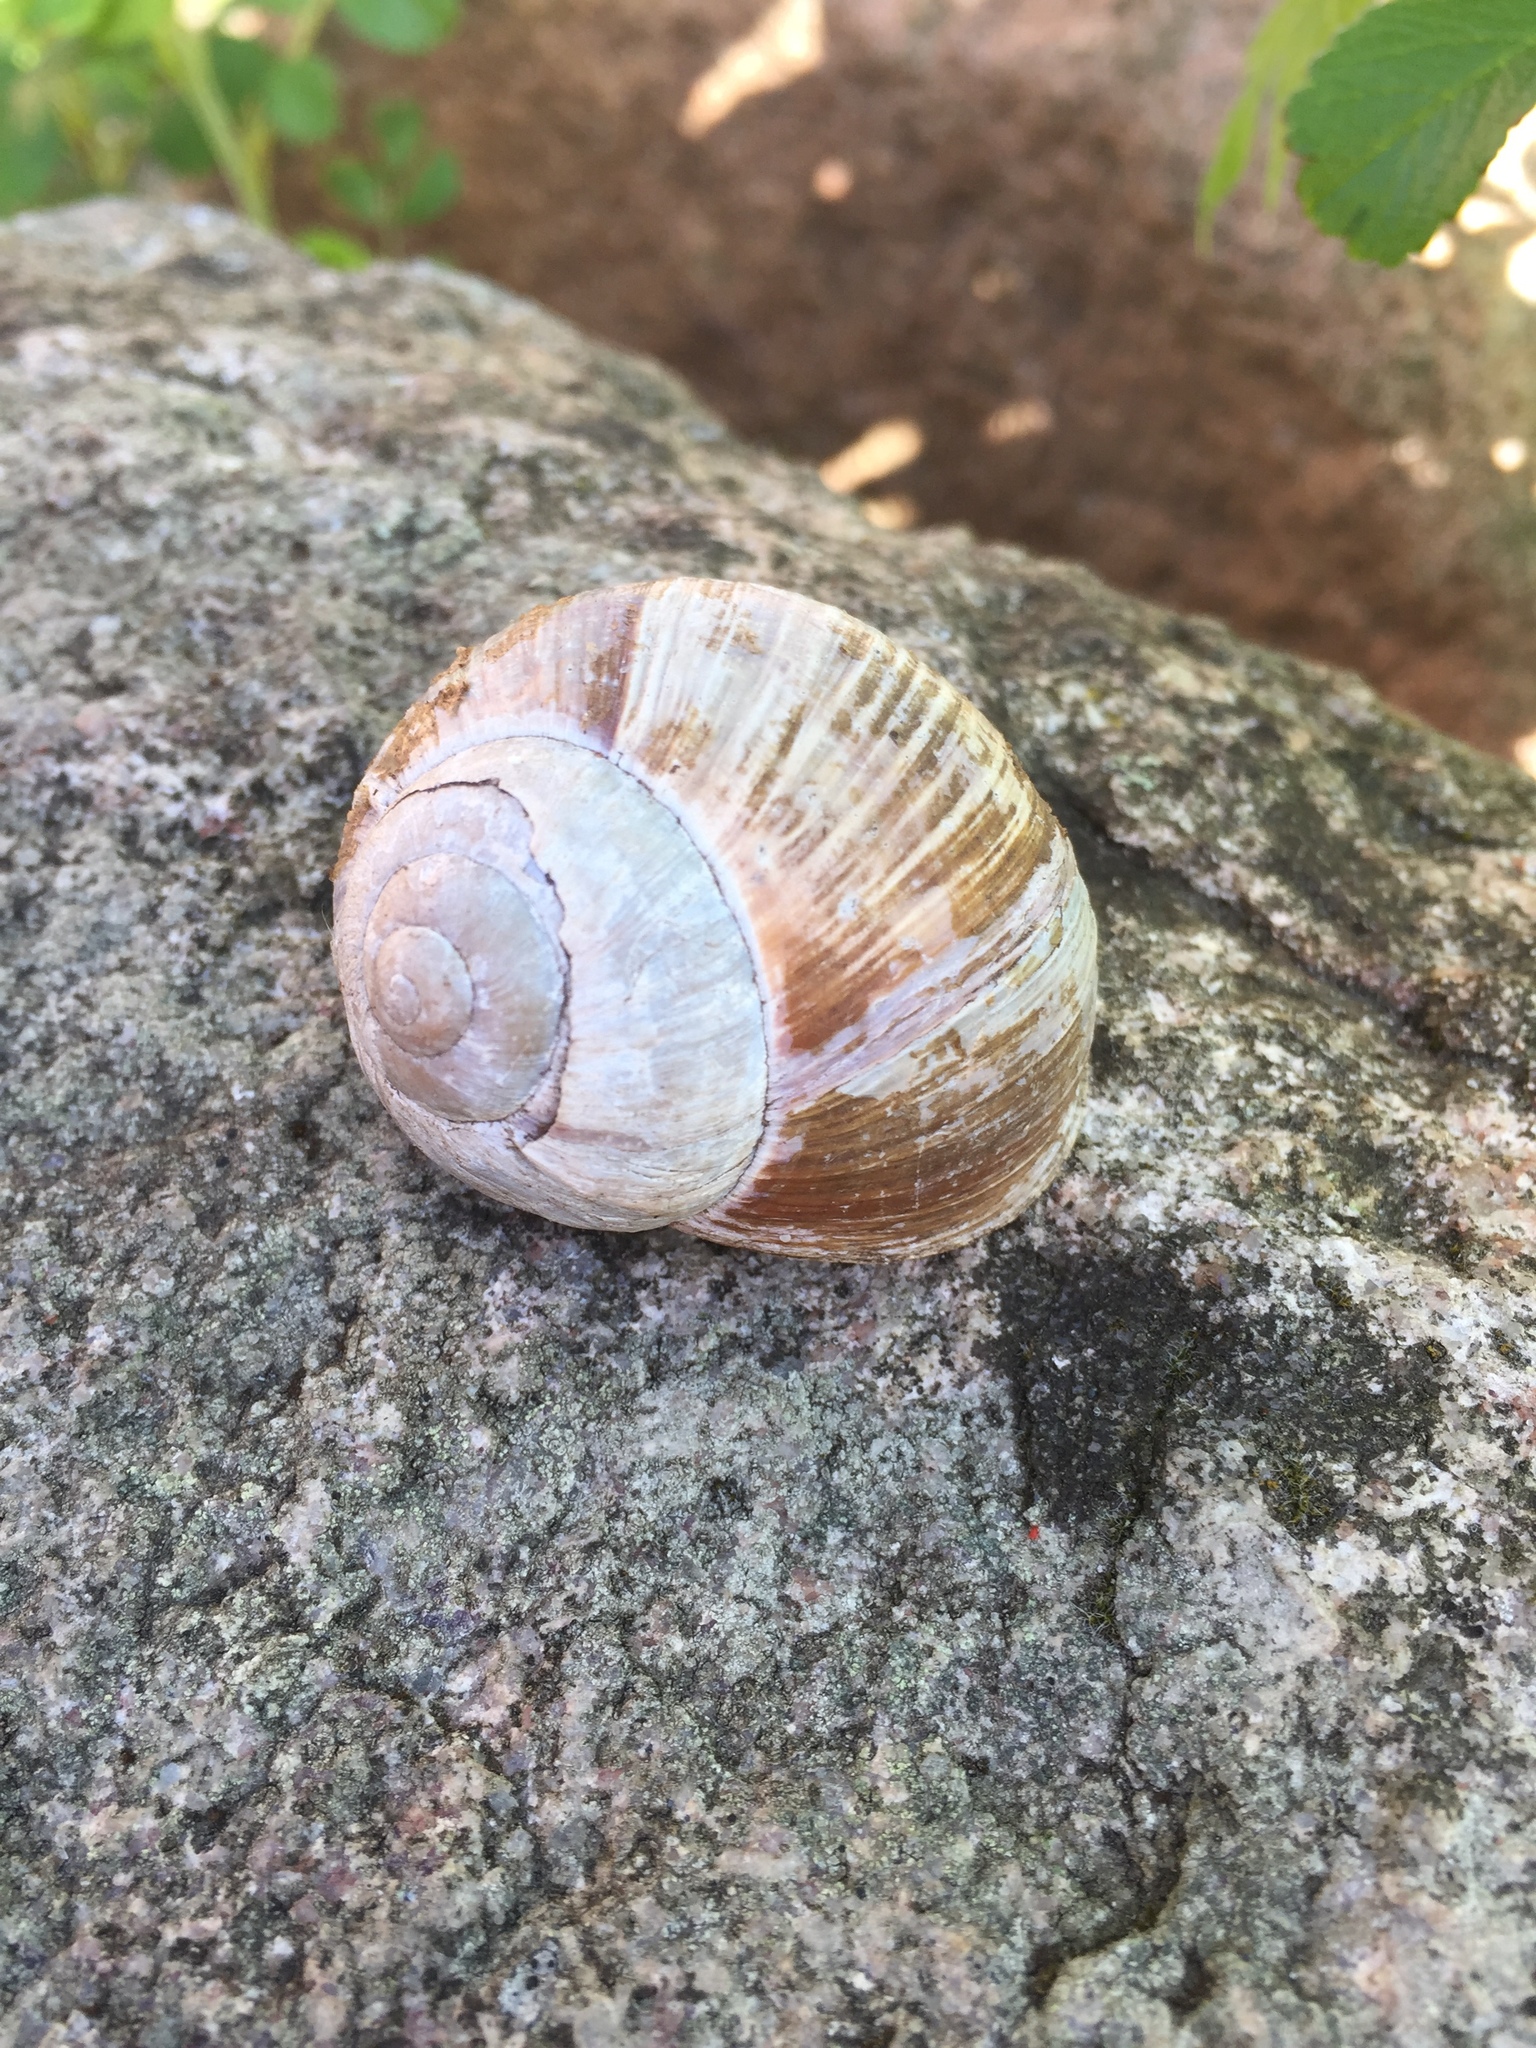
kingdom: Animalia
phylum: Mollusca
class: Gastropoda
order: Stylommatophora
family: Helicidae
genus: Helix
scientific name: Helix pomatia
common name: Roman snail
